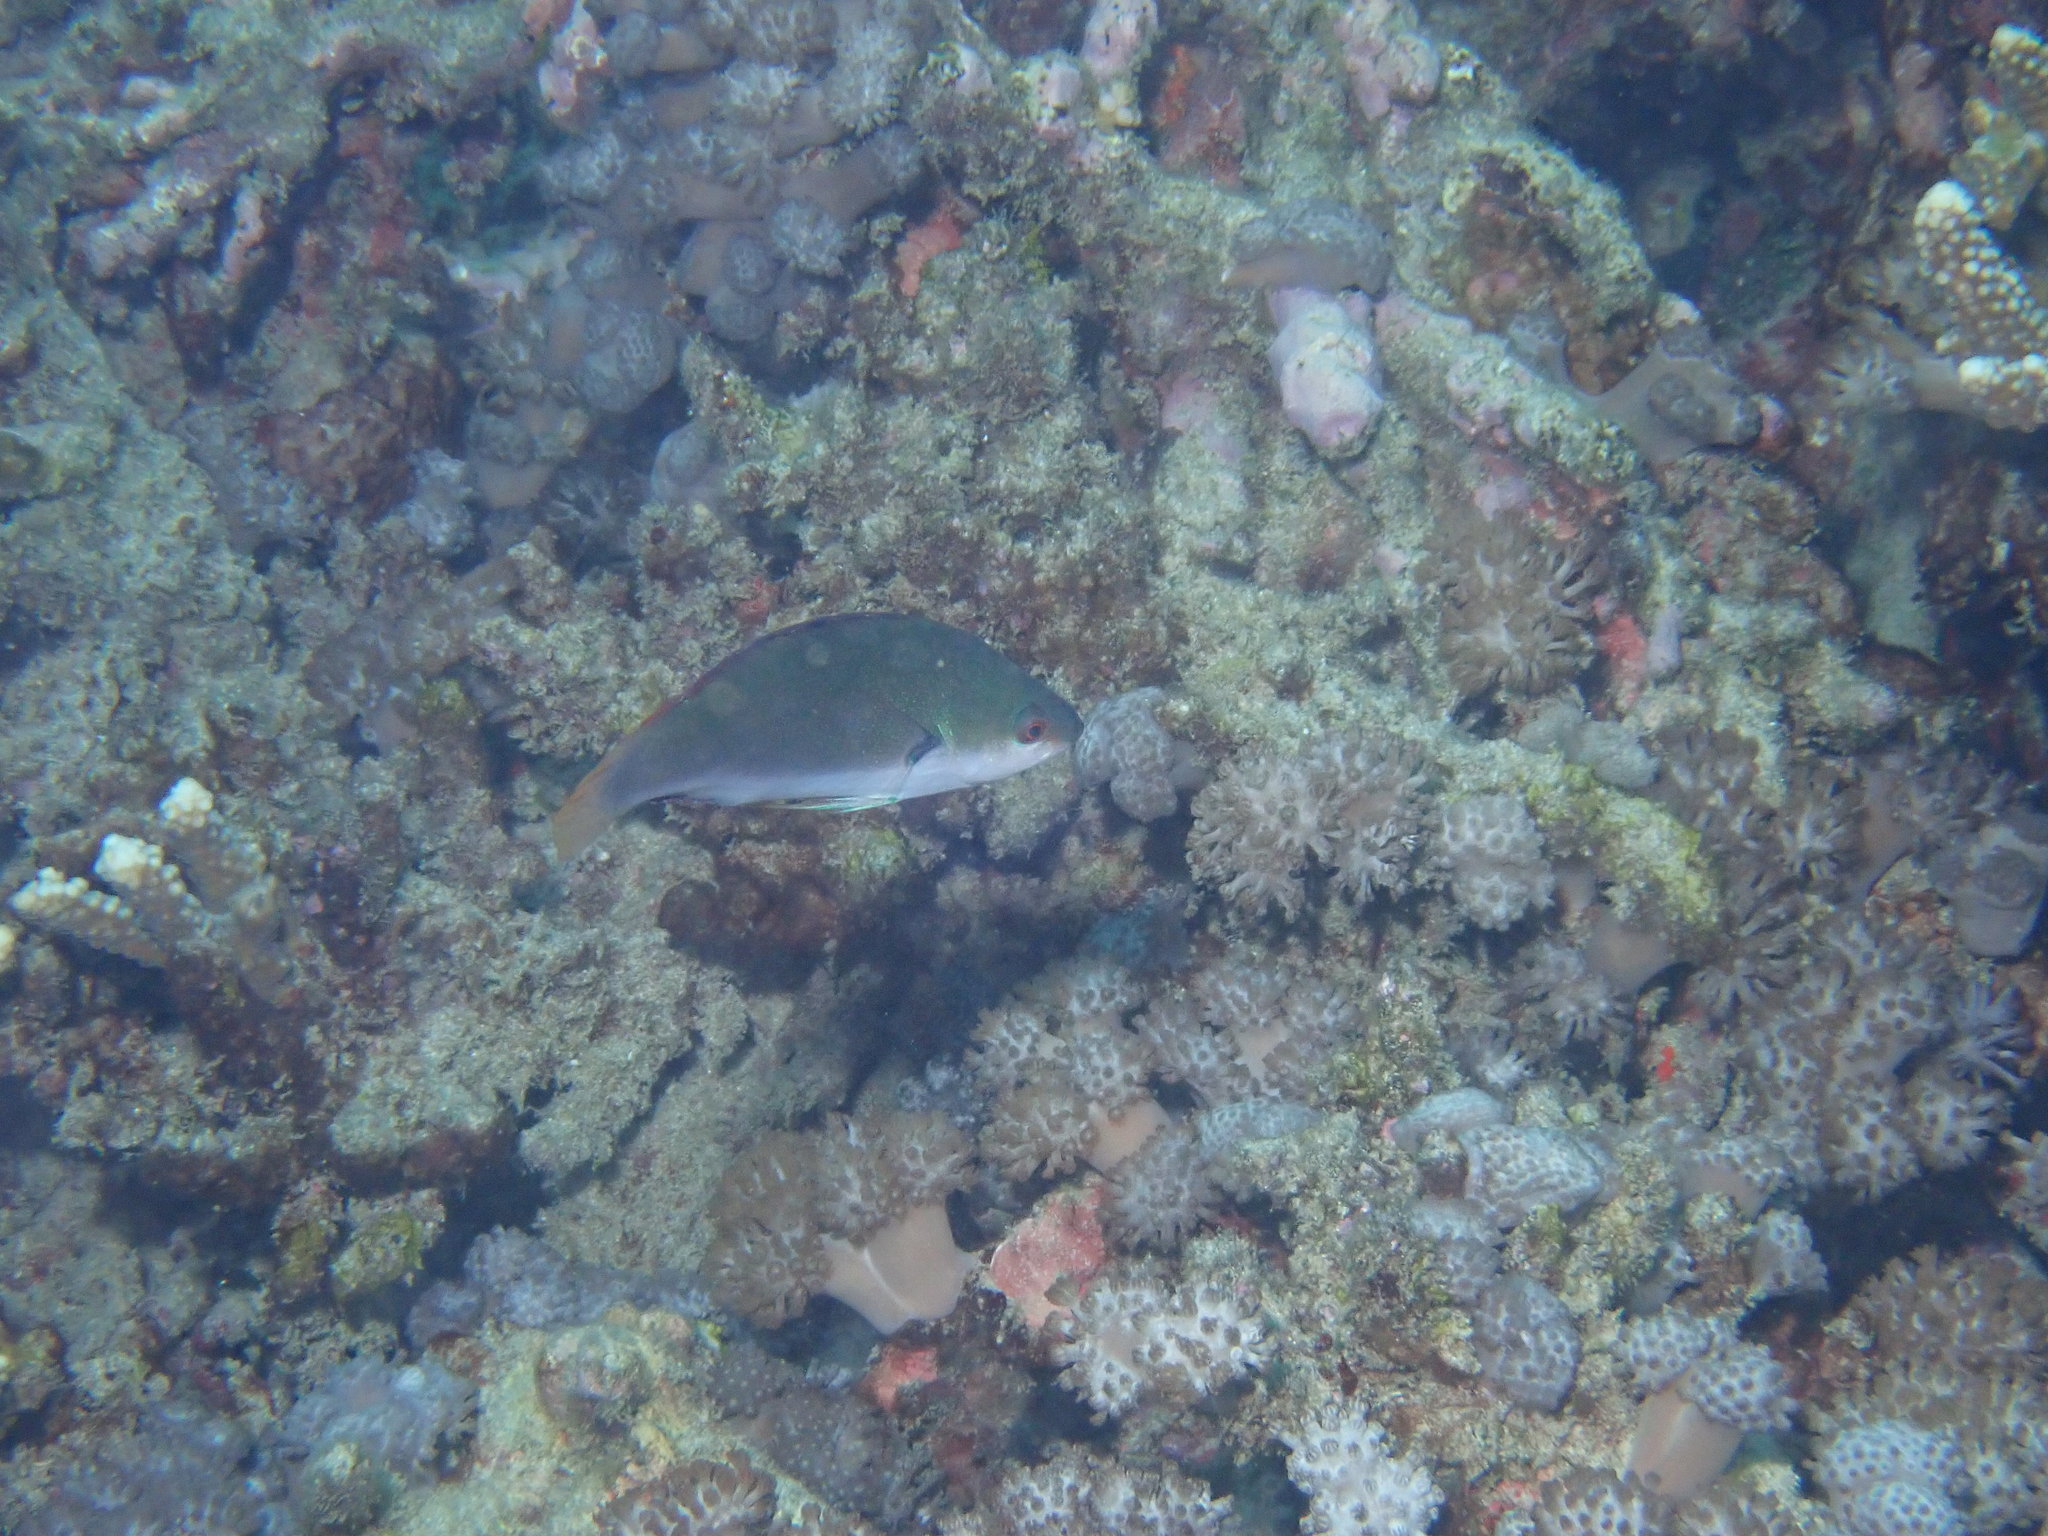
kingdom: Animalia
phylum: Chordata
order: Perciformes
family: Labridae
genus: Cirrhilabrus
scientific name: Cirrhilabrus punctatus
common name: Dotted wrasse
